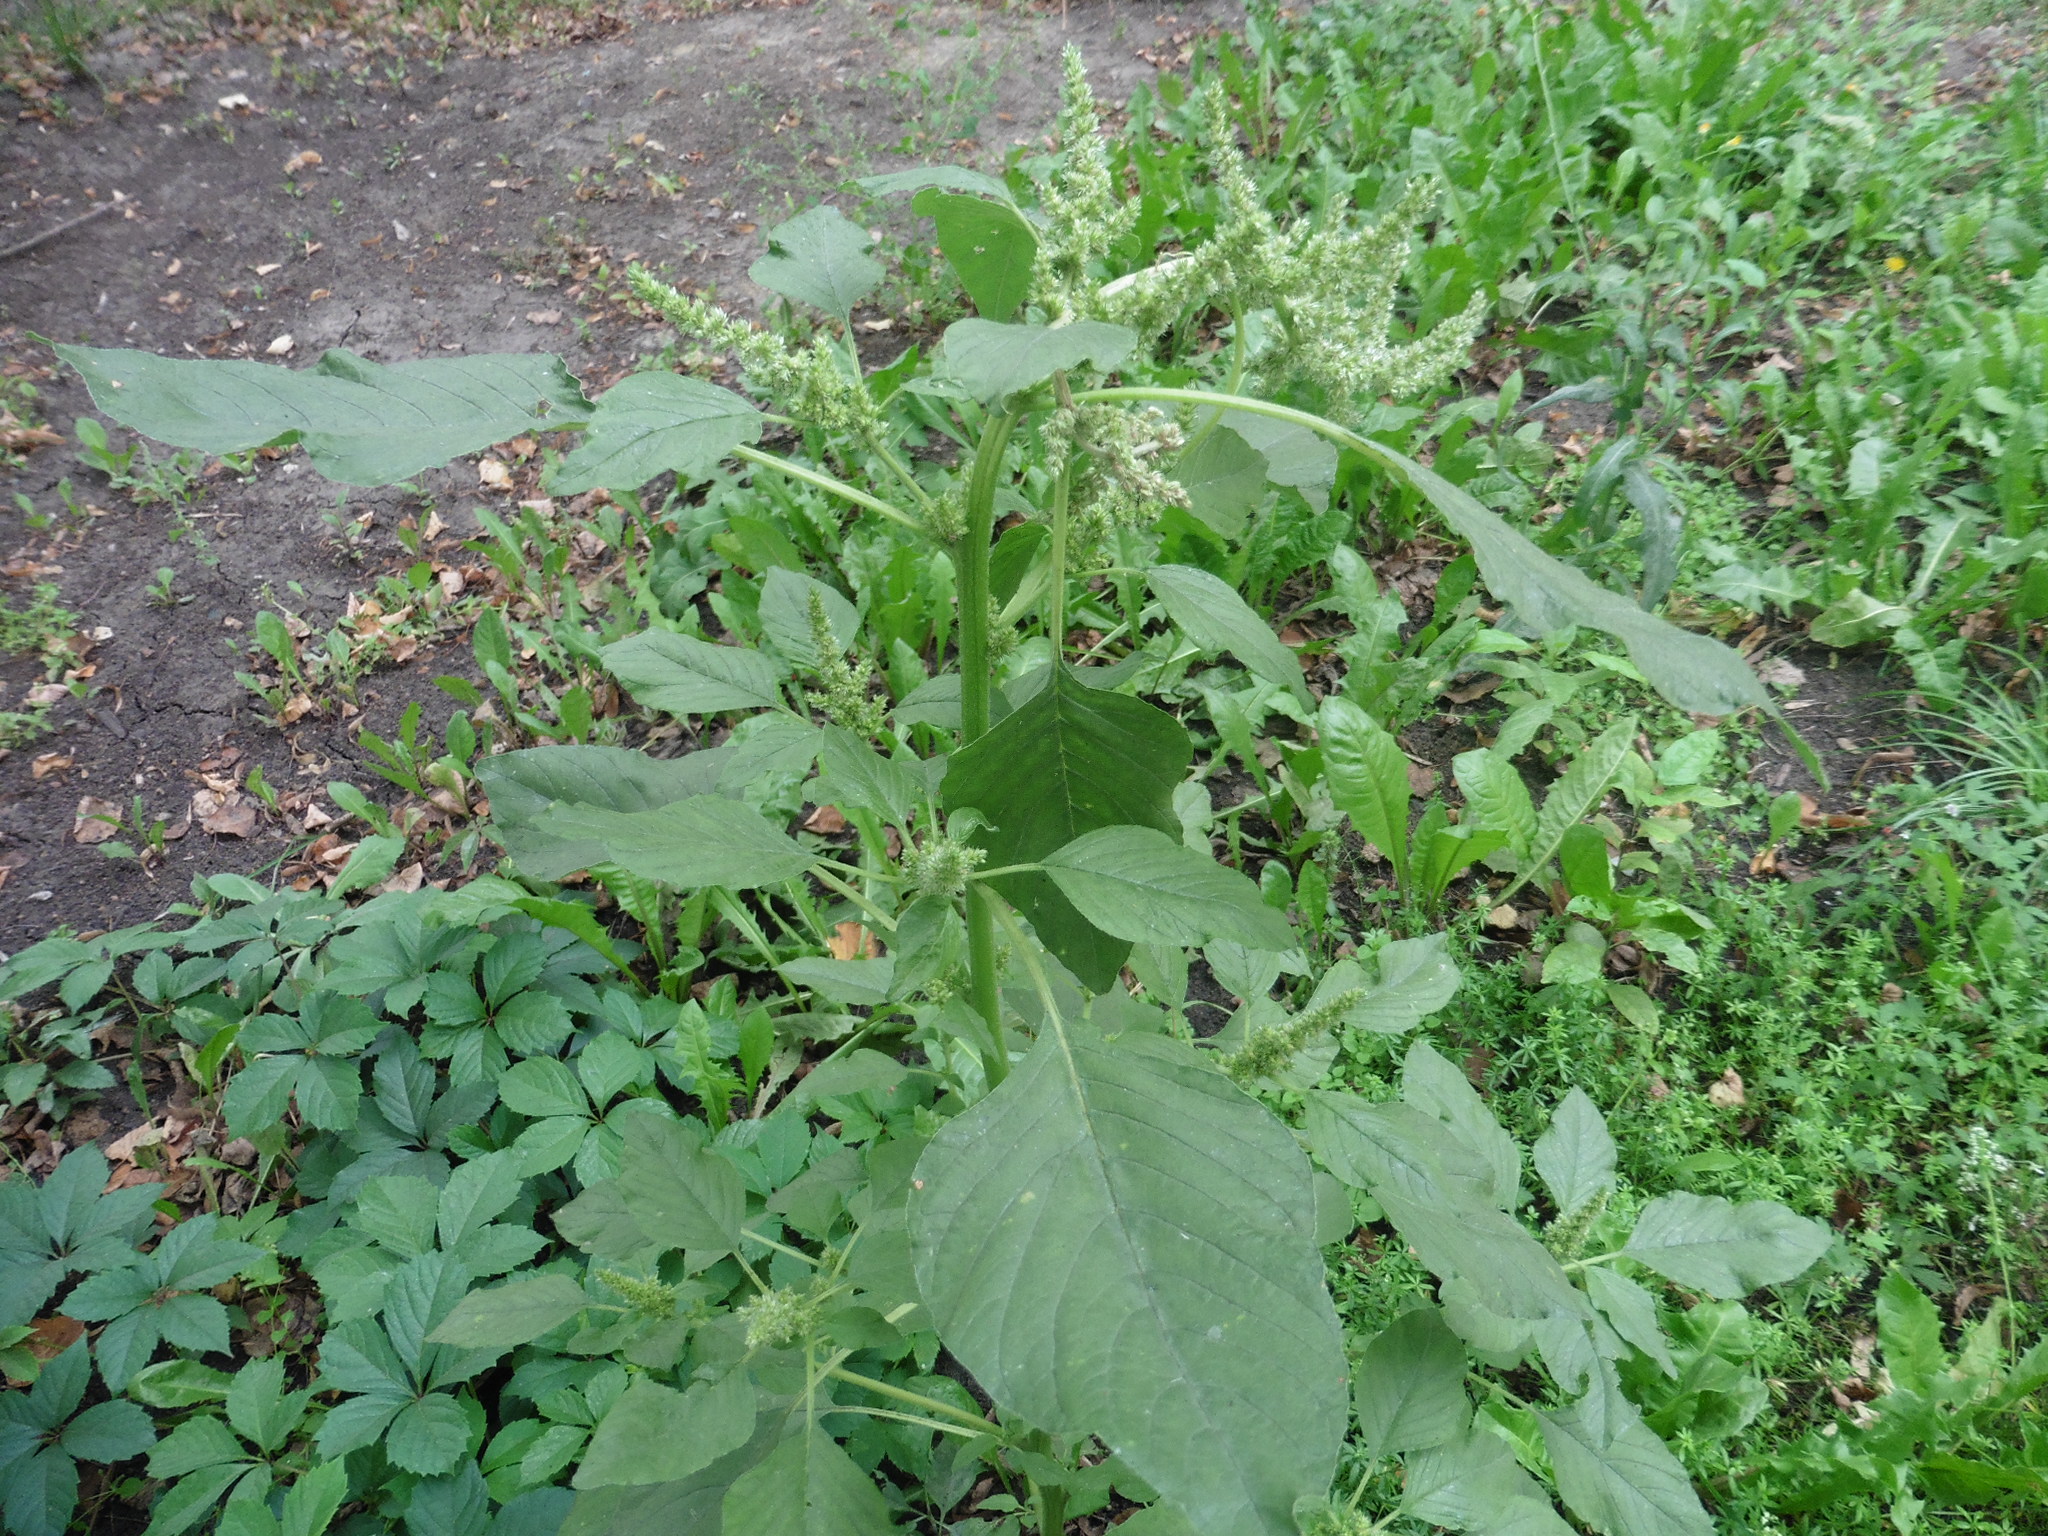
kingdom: Plantae
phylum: Tracheophyta
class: Magnoliopsida
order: Caryophyllales
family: Amaranthaceae
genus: Amaranthus
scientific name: Amaranthus retroflexus
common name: Redroot amaranth
